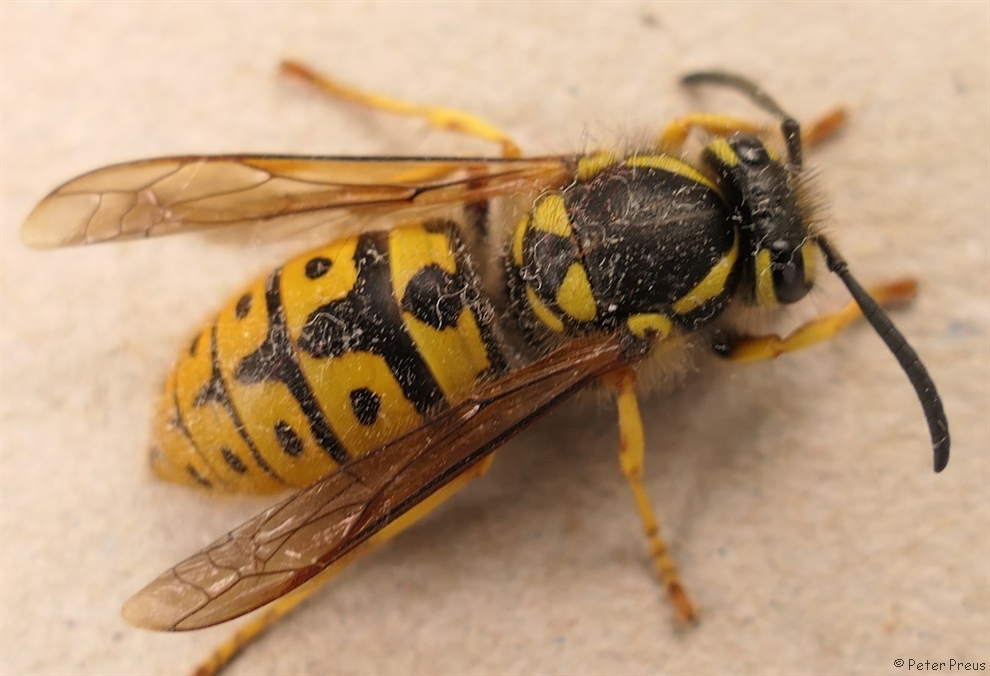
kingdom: Animalia
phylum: Arthropoda
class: Insecta
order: Hymenoptera
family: Vespidae
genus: Vespula
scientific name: Vespula germanica
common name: German wasp
